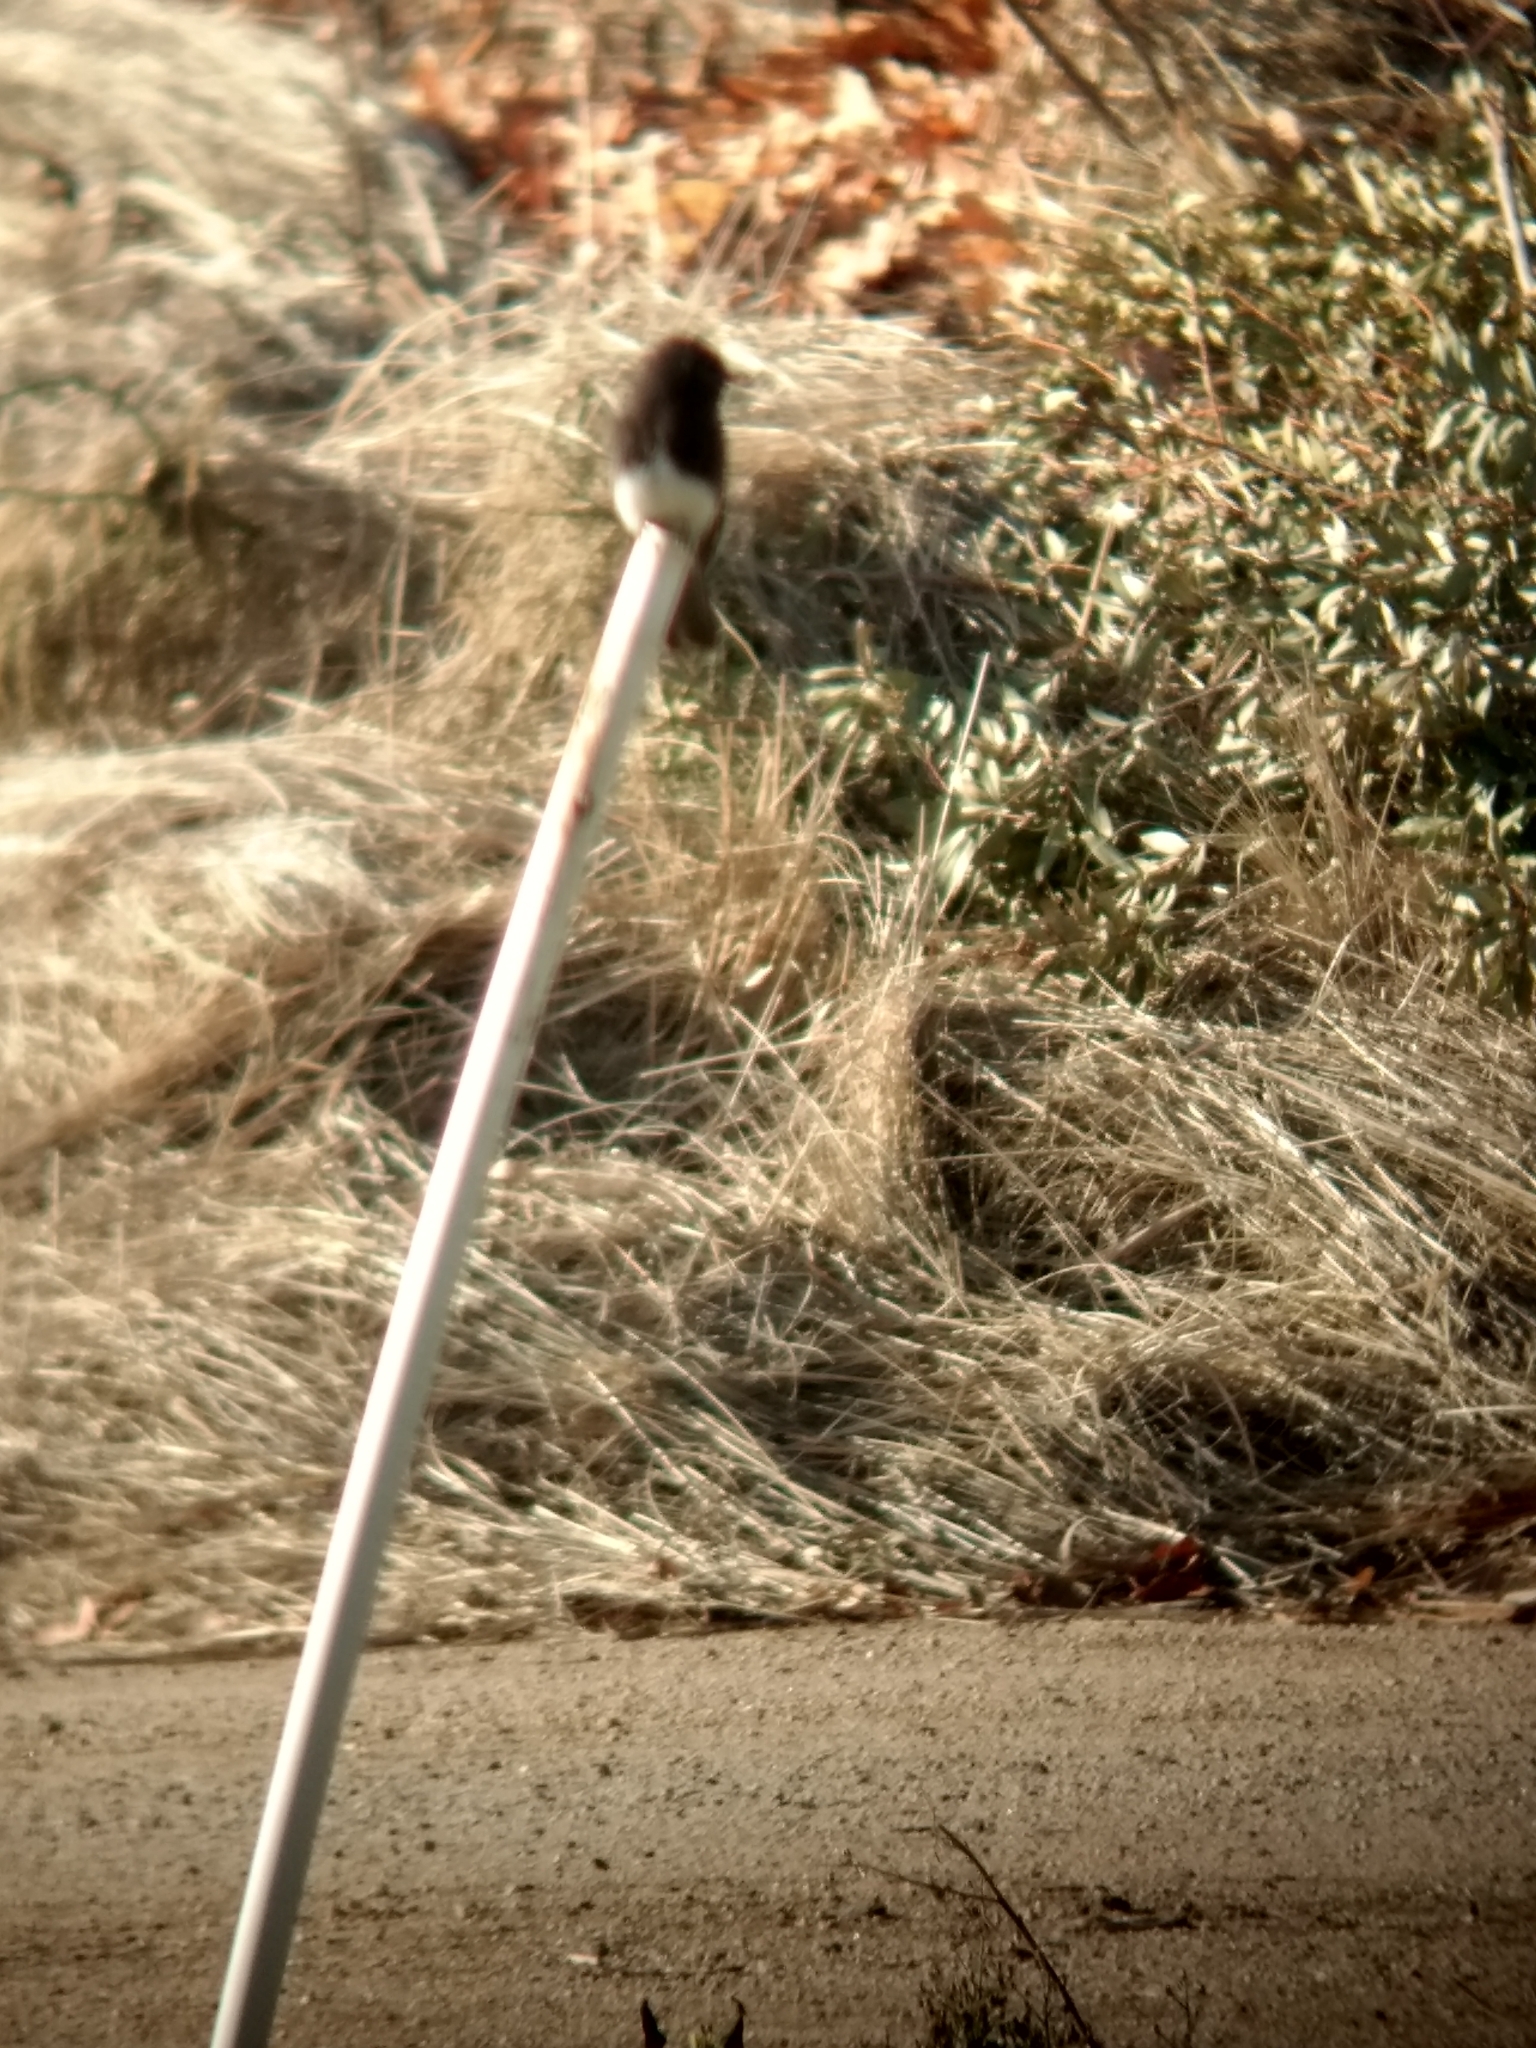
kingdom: Animalia
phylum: Chordata
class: Aves
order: Passeriformes
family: Tyrannidae
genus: Sayornis
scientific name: Sayornis nigricans
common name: Black phoebe
